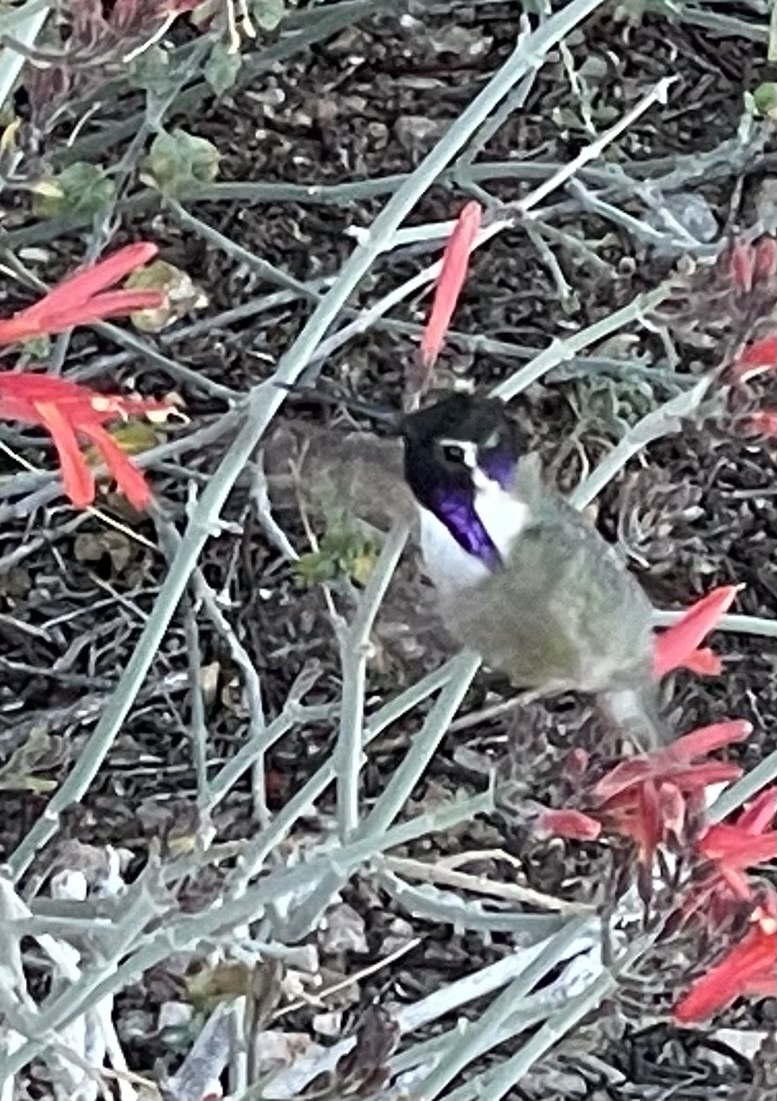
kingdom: Animalia
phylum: Chordata
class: Aves
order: Apodiformes
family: Trochilidae
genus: Calypte
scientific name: Calypte costae
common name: Costa's hummingbird
